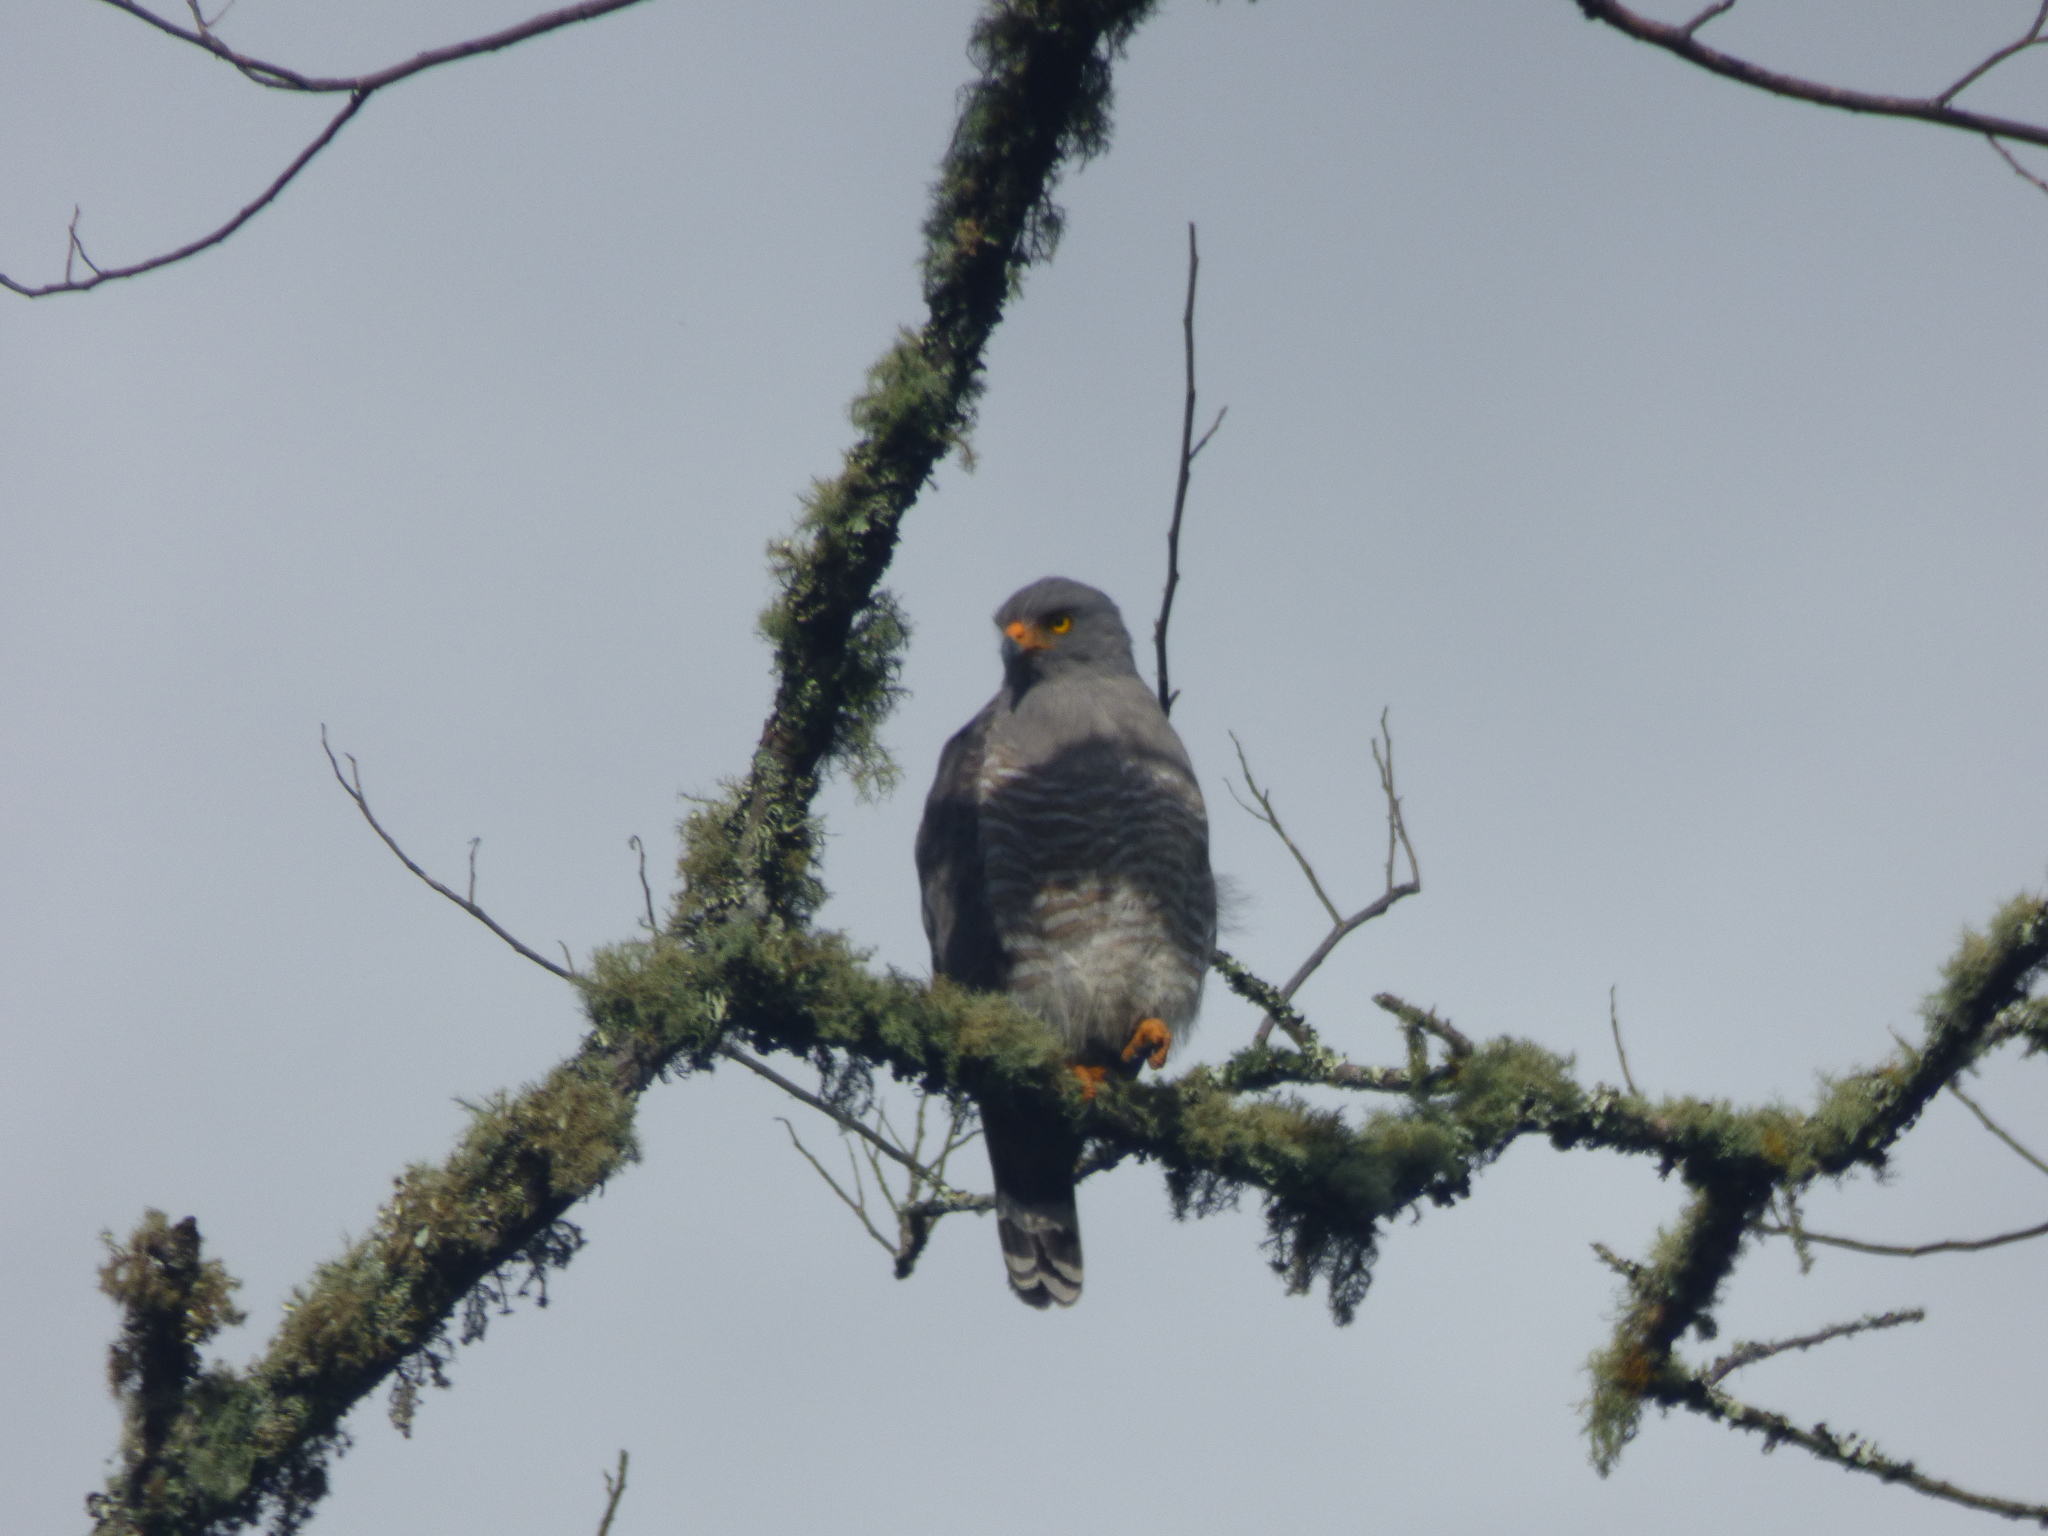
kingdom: Animalia
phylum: Chordata
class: Aves
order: Accipitriformes
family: Accipitridae
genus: Rupornis
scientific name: Rupornis magnirostris
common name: Roadside hawk
